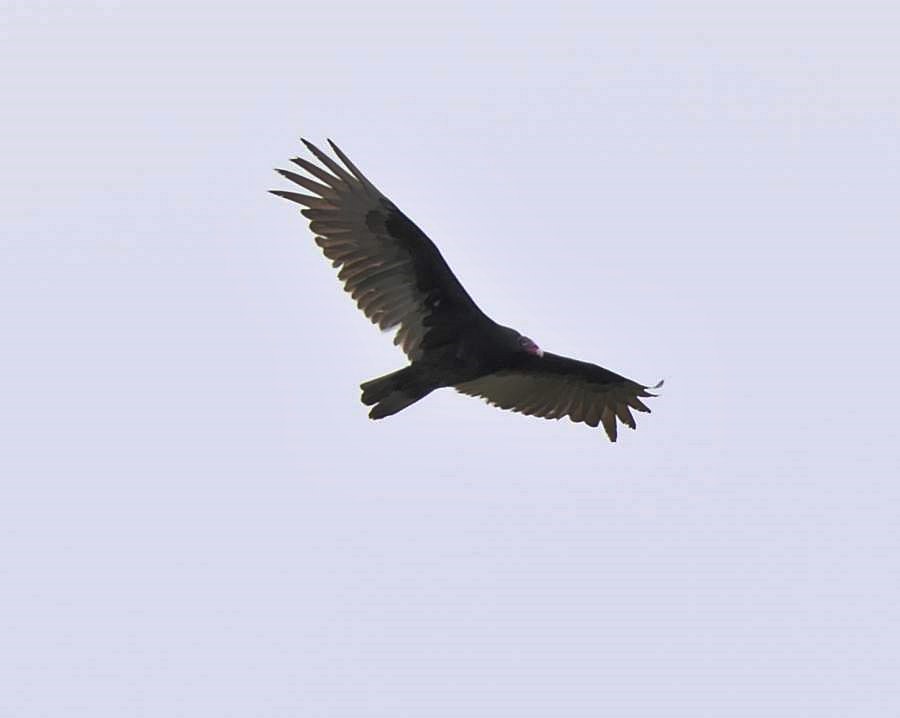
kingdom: Animalia
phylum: Chordata
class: Aves
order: Accipitriformes
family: Cathartidae
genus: Cathartes
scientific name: Cathartes aura
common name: Turkey vulture
